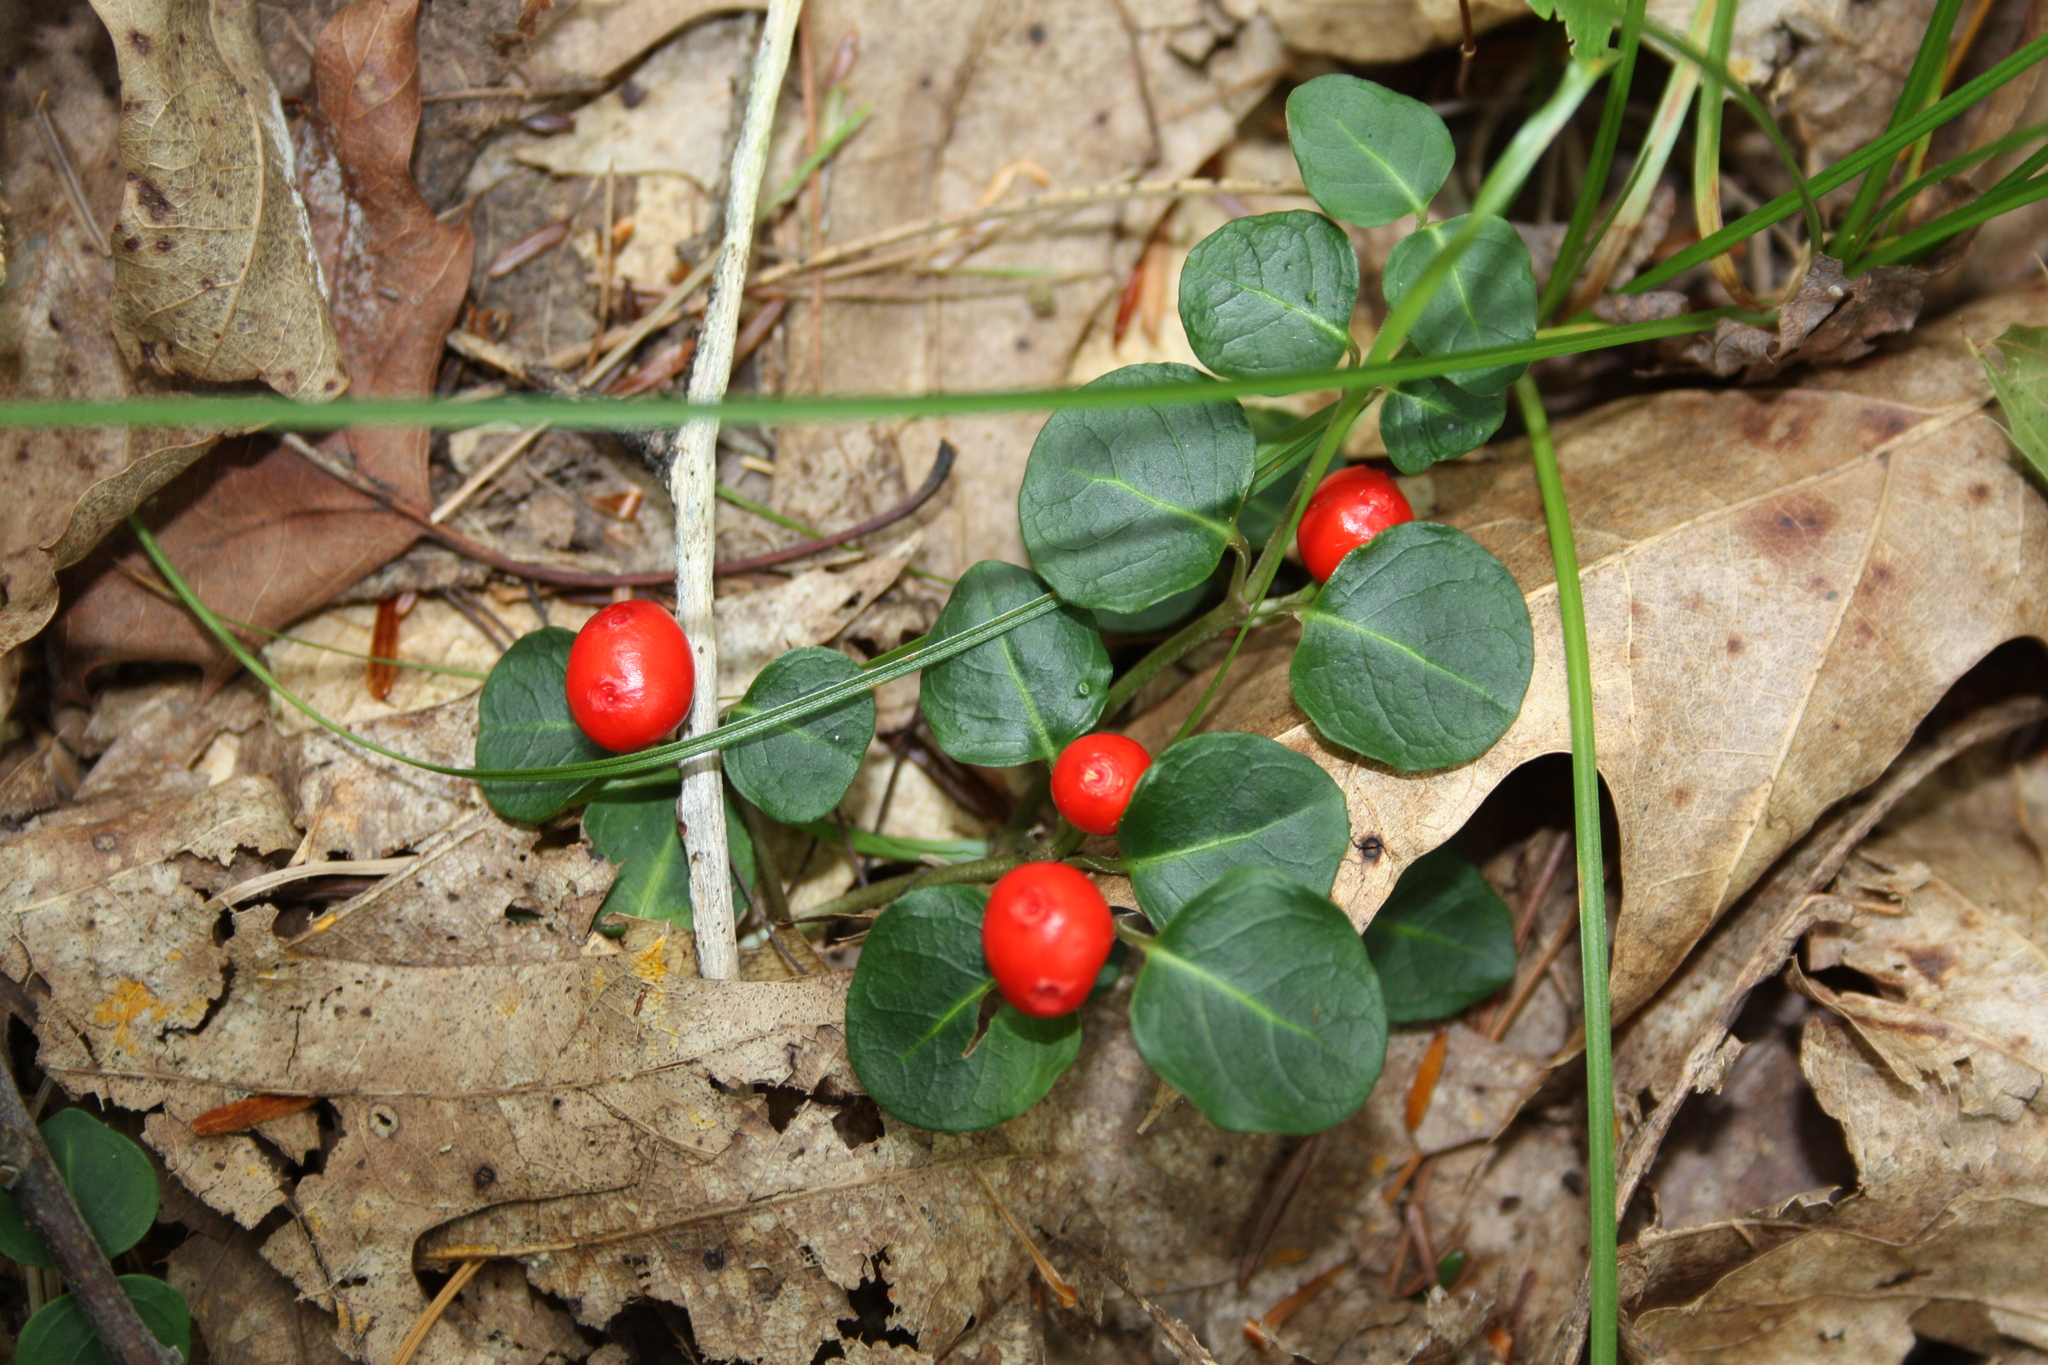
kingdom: Plantae
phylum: Tracheophyta
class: Magnoliopsida
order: Gentianales
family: Rubiaceae
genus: Mitchella
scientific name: Mitchella repens
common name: Partridge-berry
